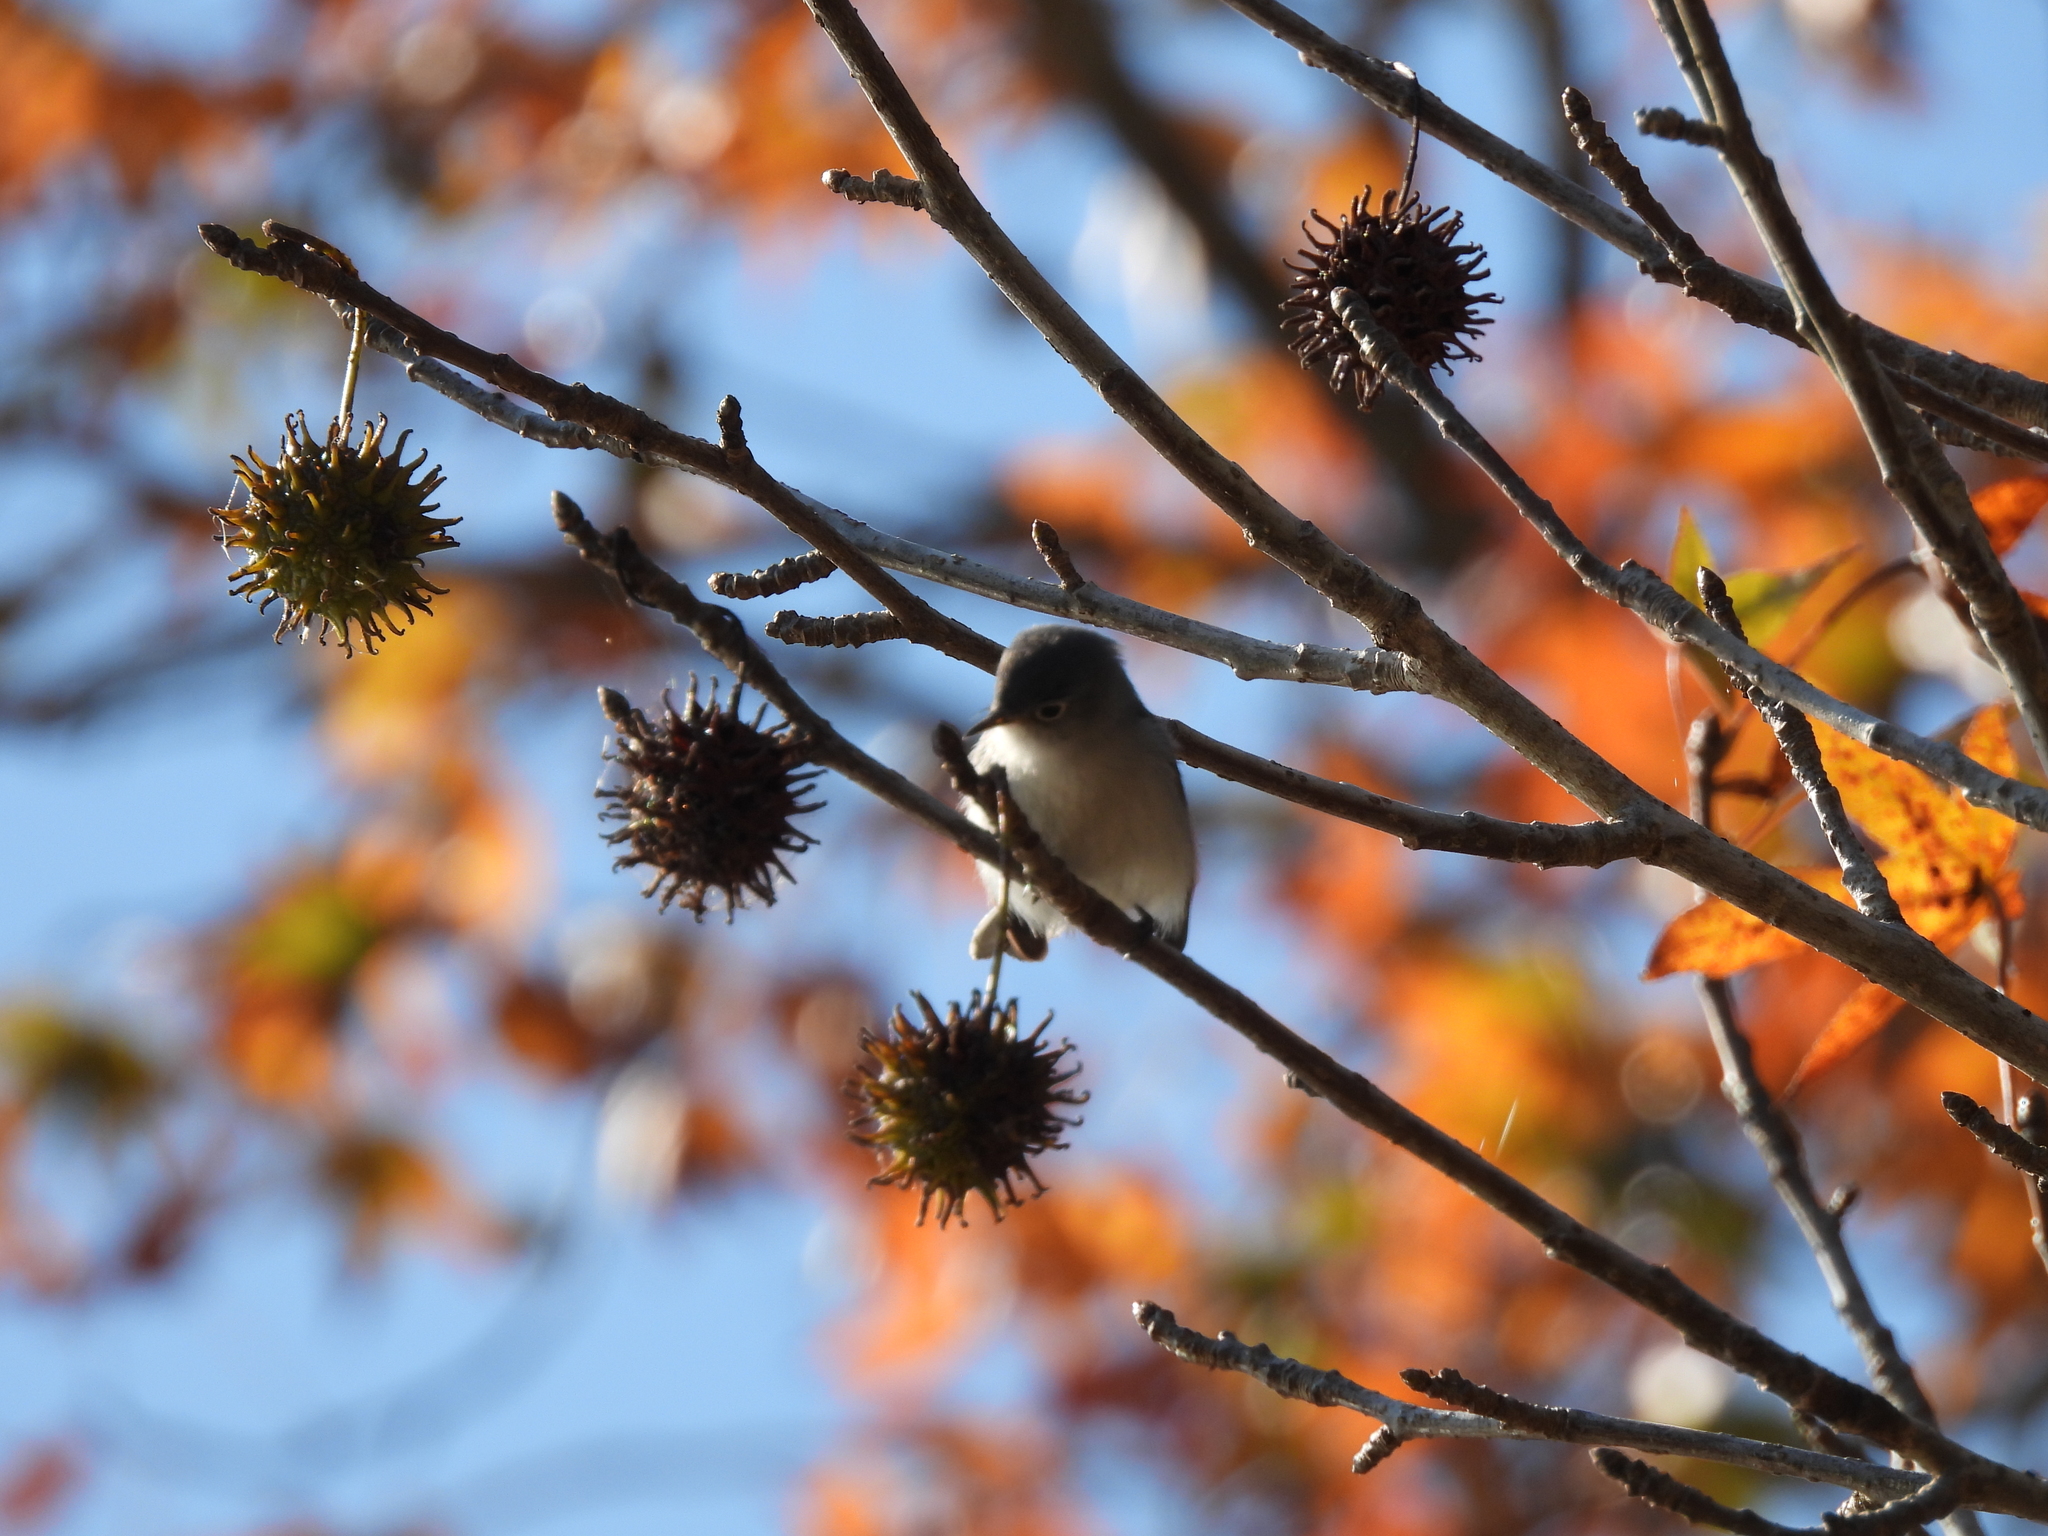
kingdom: Animalia
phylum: Chordata
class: Aves
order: Passeriformes
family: Polioptilidae
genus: Polioptila
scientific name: Polioptila caerulea
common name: Blue-gray gnatcatcher
